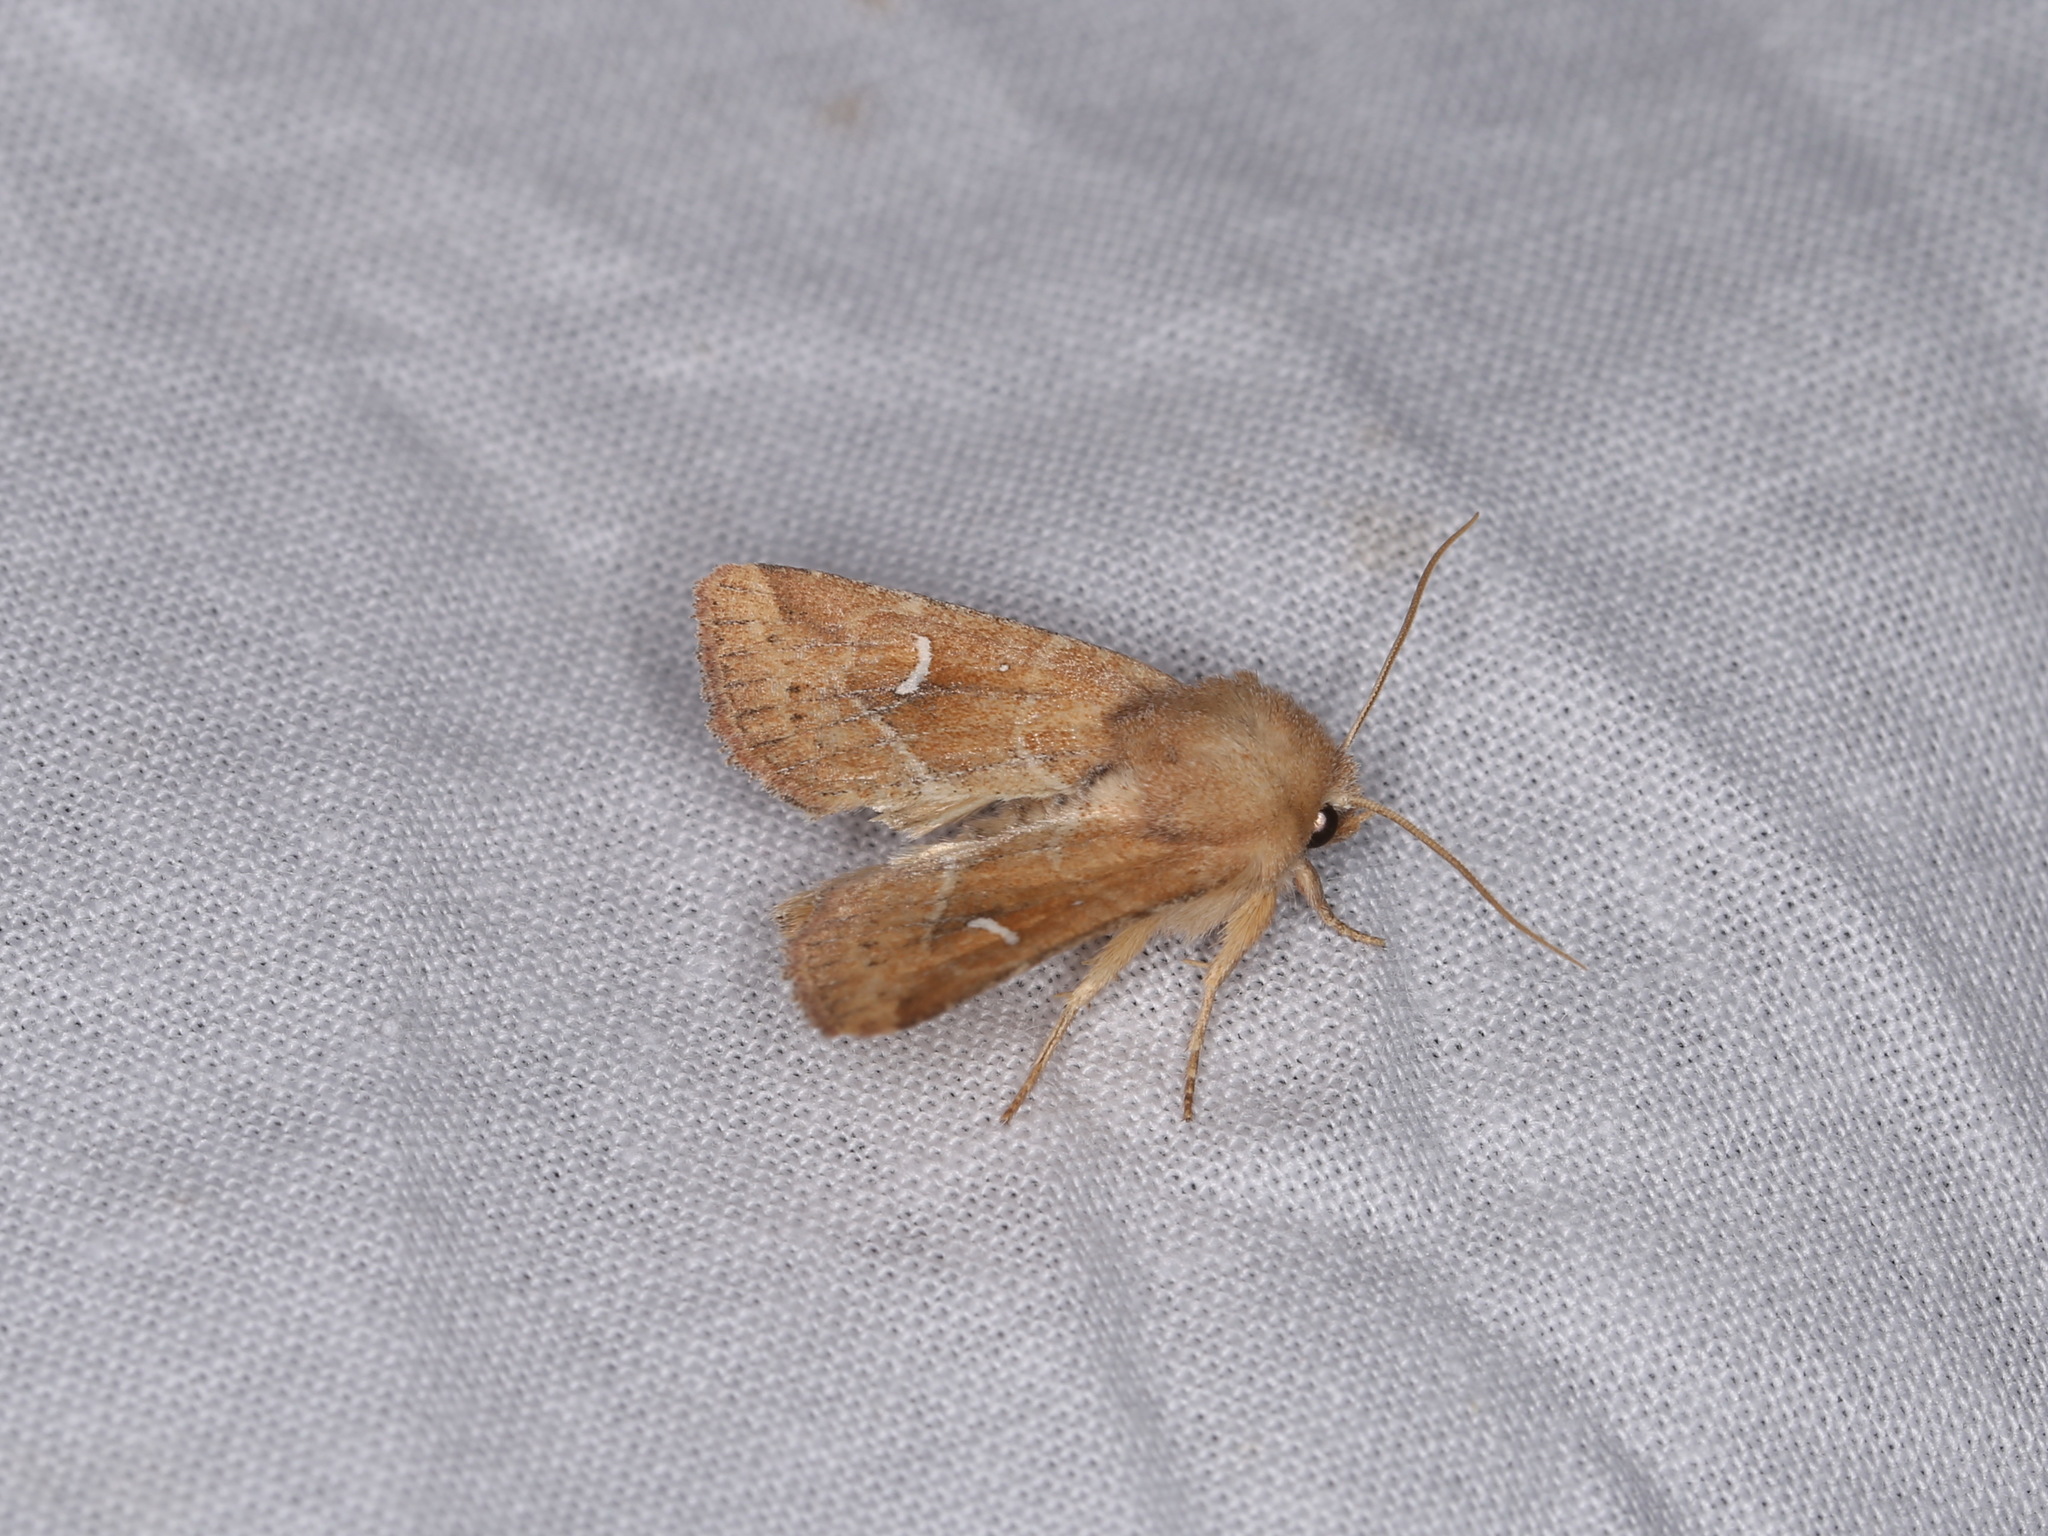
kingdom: Animalia
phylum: Arthropoda
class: Insecta
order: Lepidoptera
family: Noctuidae
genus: Eriopyga
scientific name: Eriopyga lunata
